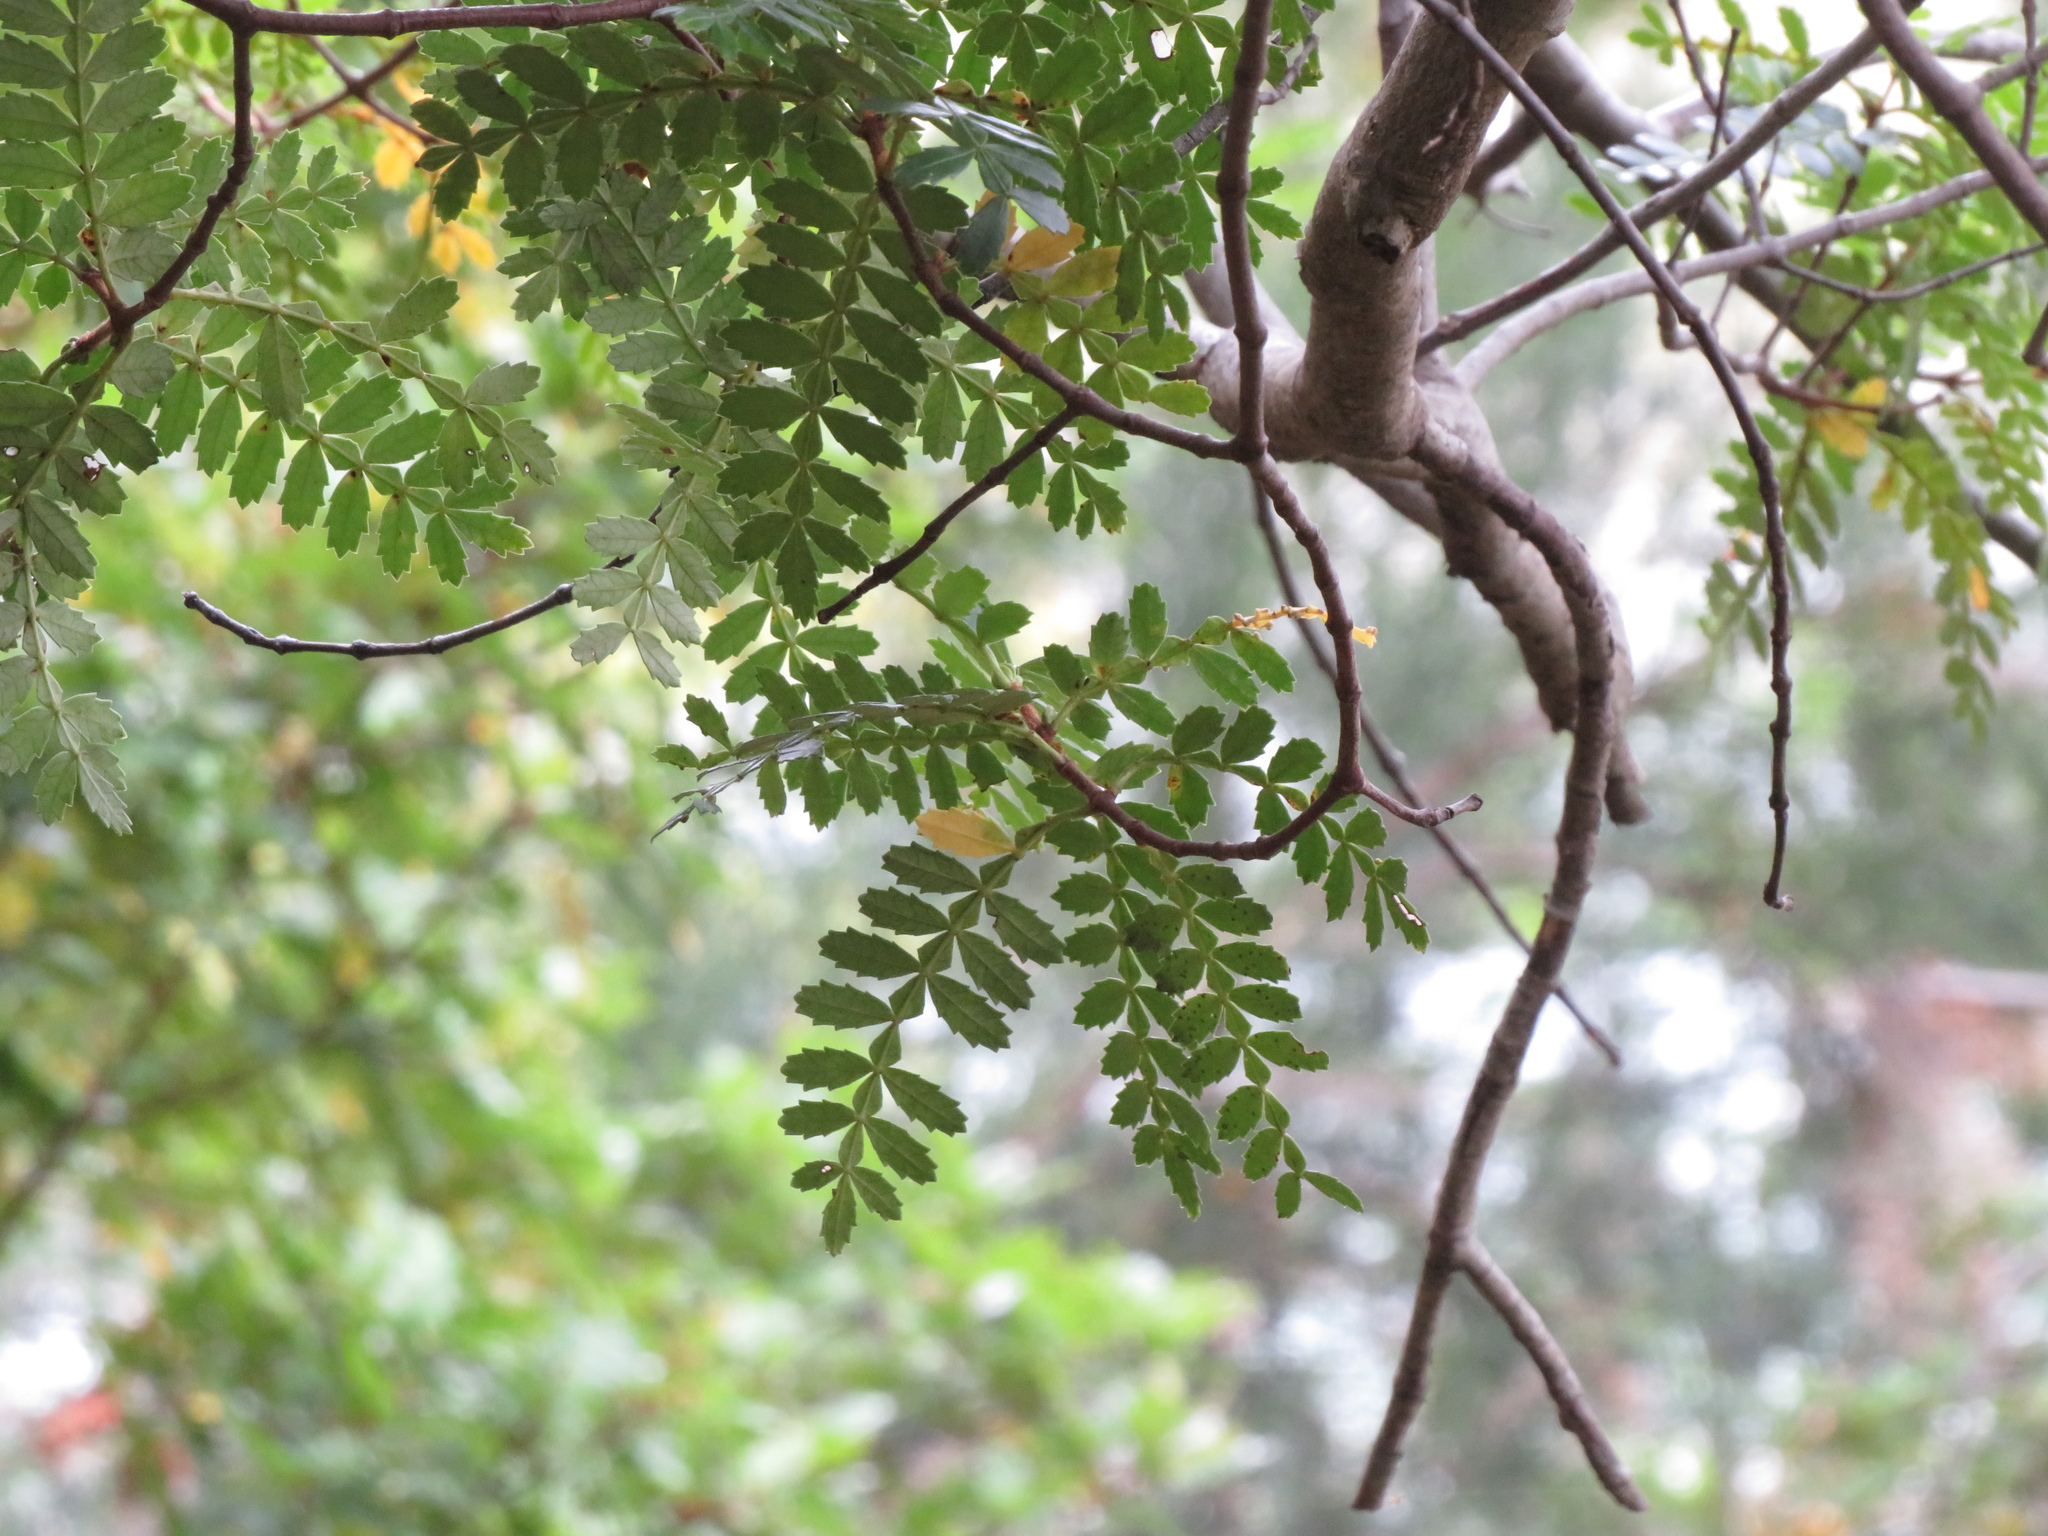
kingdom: Plantae
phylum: Tracheophyta
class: Magnoliopsida
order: Oxalidales
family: Cunoniaceae
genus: Weinmannia
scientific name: Weinmannia trichosperma
